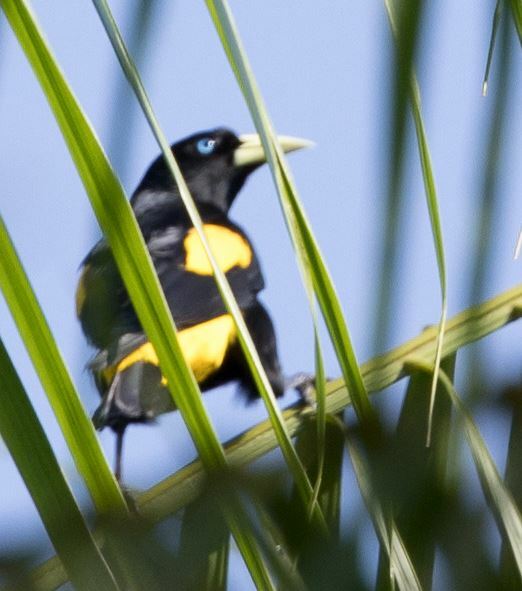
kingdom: Animalia
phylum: Chordata
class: Aves
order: Passeriformes
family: Icteridae
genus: Cacicus
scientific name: Cacicus cela
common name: Yellow-rumped cacique
